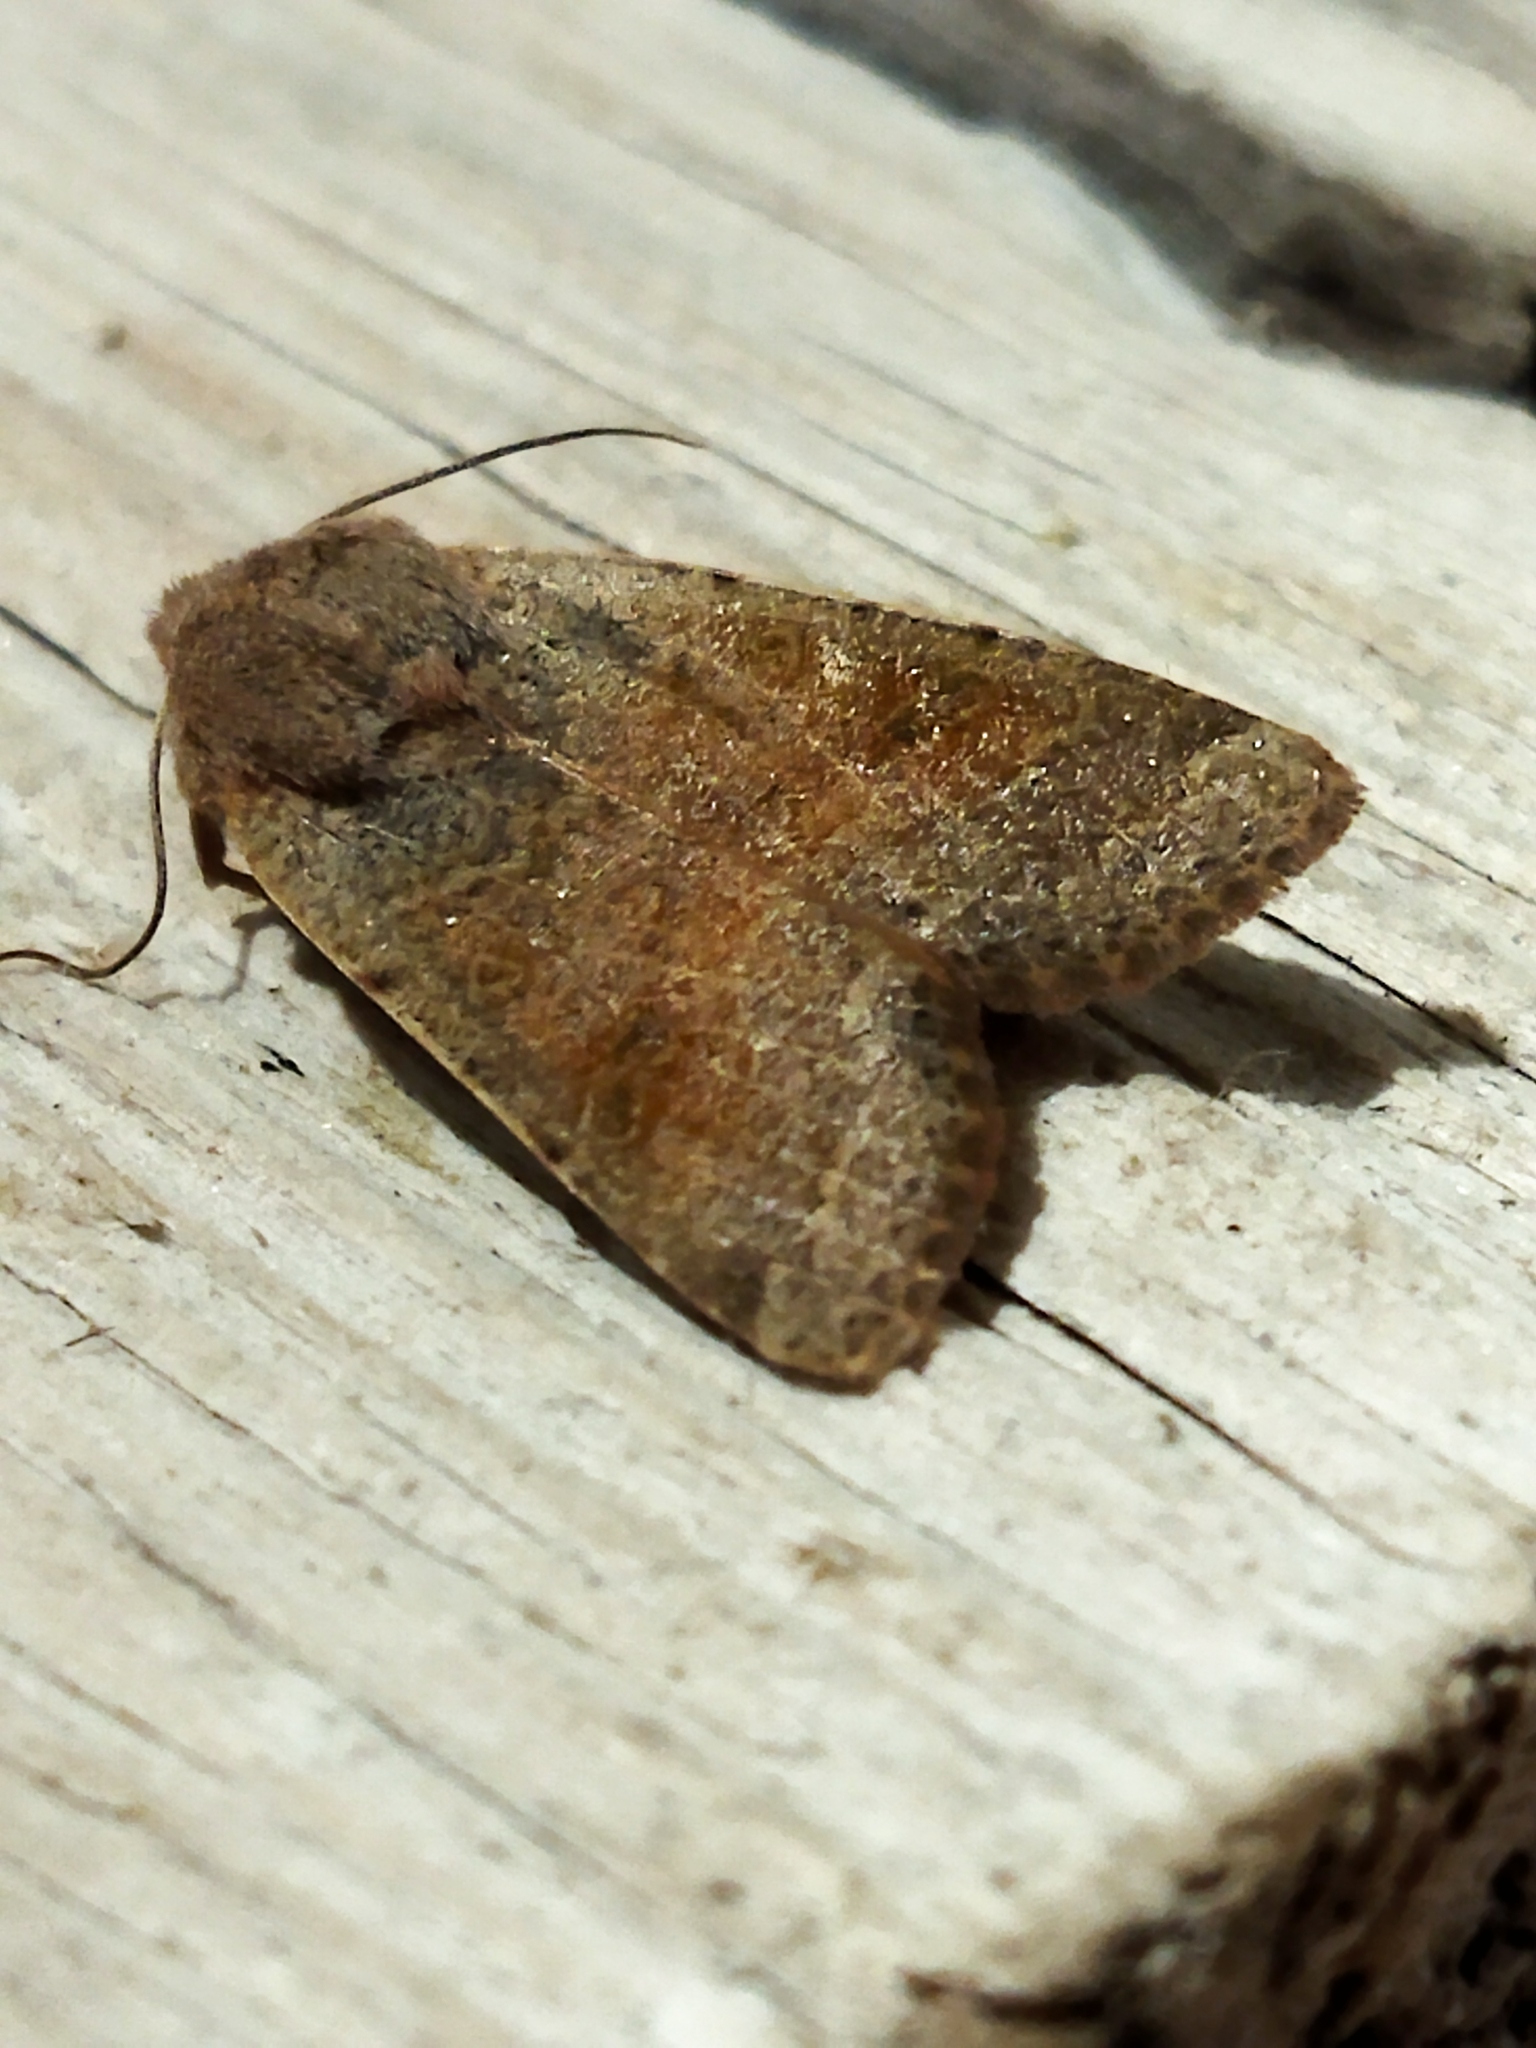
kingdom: Animalia
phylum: Arthropoda
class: Insecta
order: Lepidoptera
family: Noctuidae
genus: Agrochola
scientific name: Agrochola lychnidis
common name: Beaded chestnut
